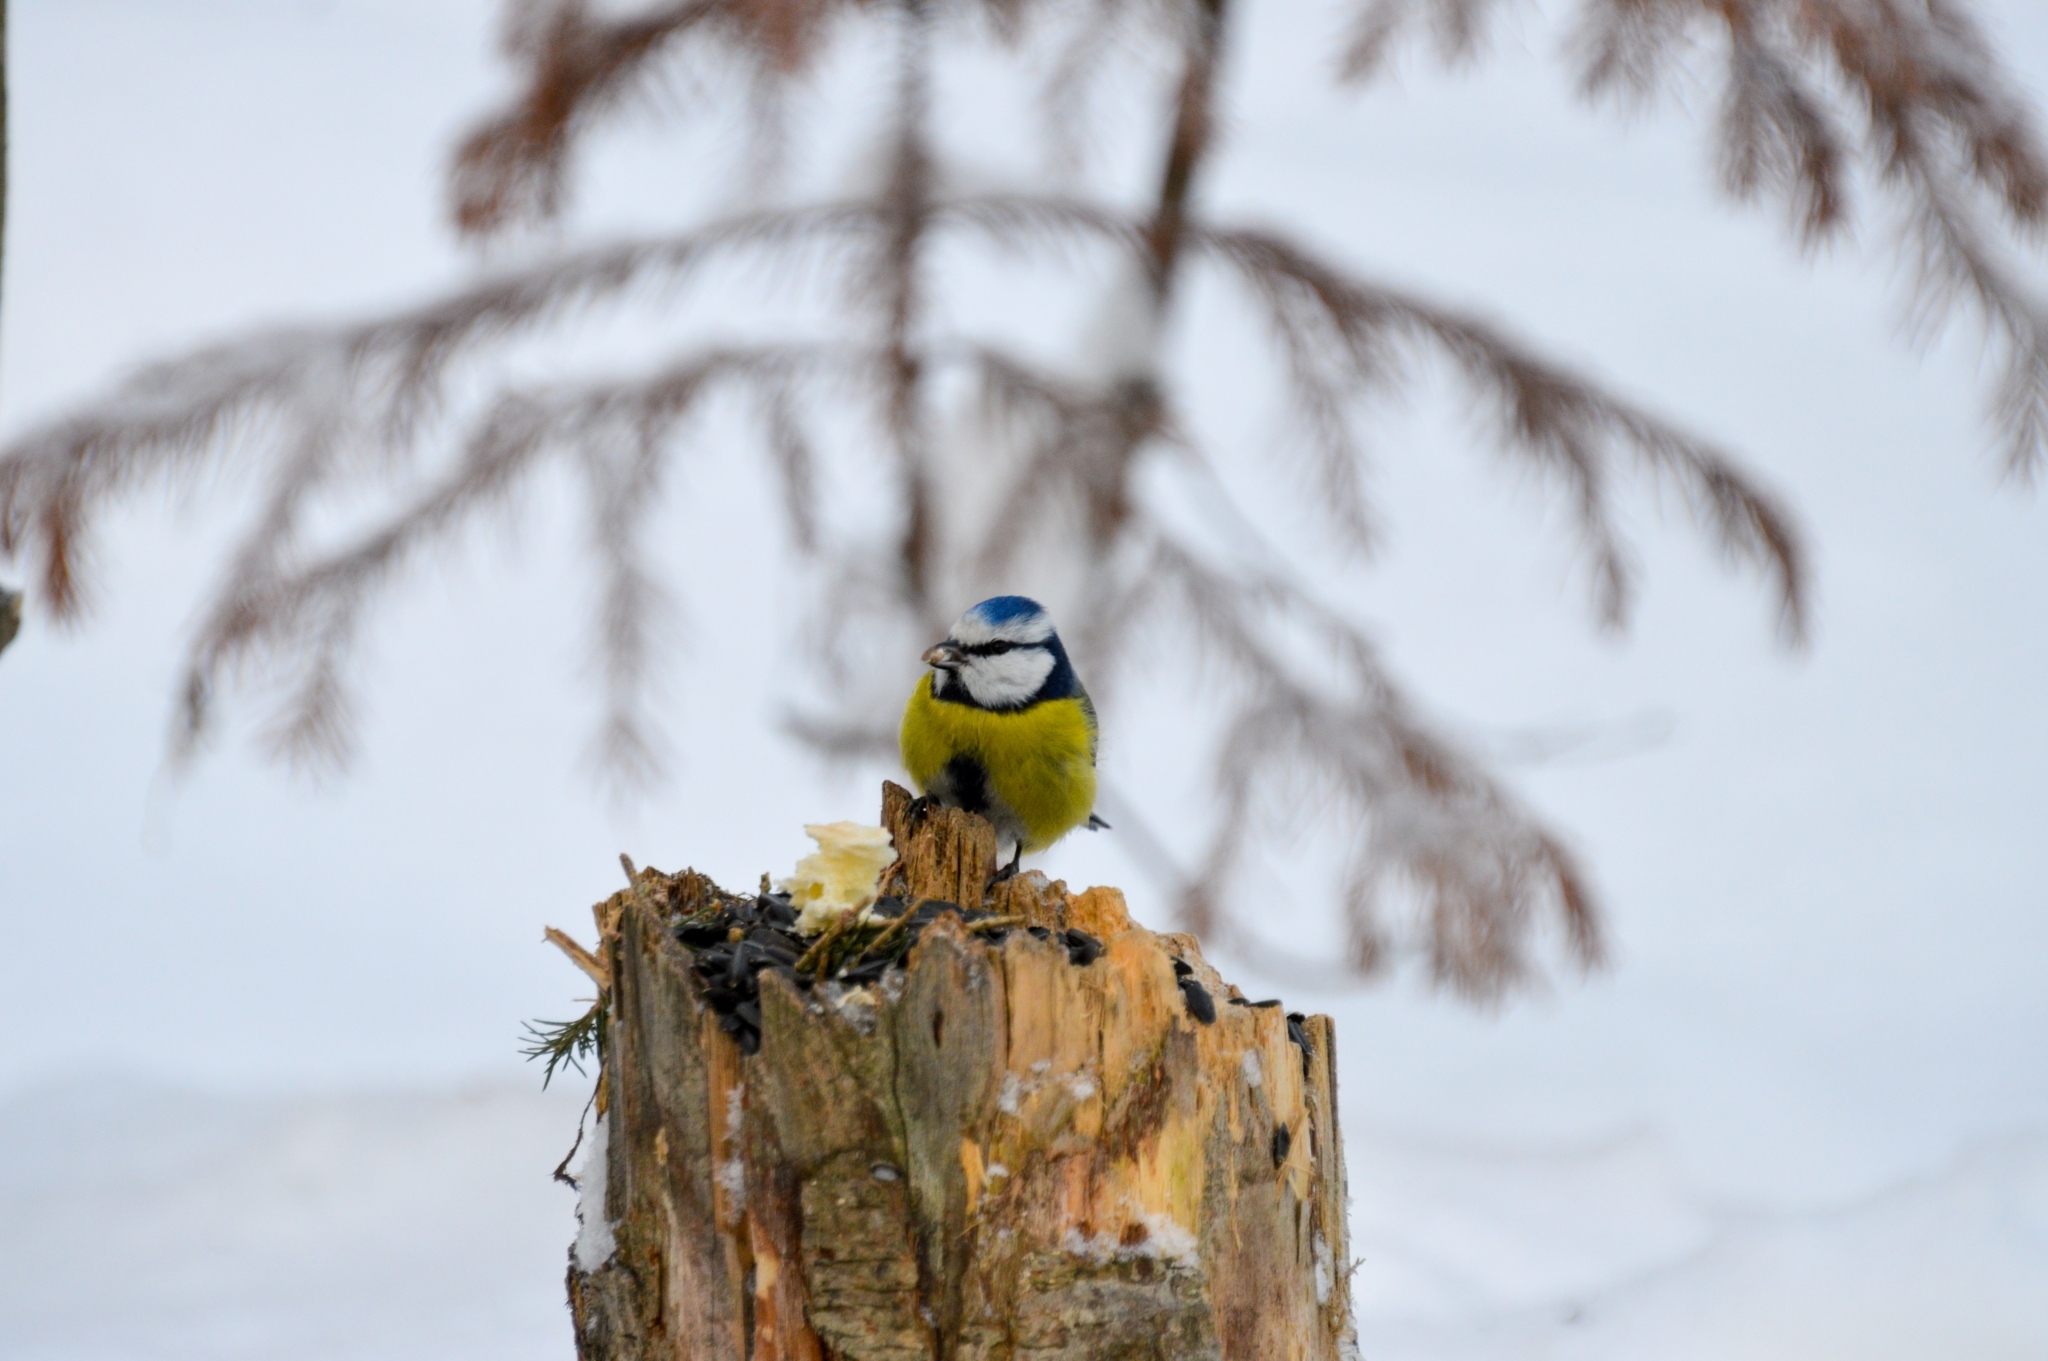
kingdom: Animalia
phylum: Chordata
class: Aves
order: Passeriformes
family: Paridae
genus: Cyanistes
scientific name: Cyanistes caeruleus
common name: Eurasian blue tit
